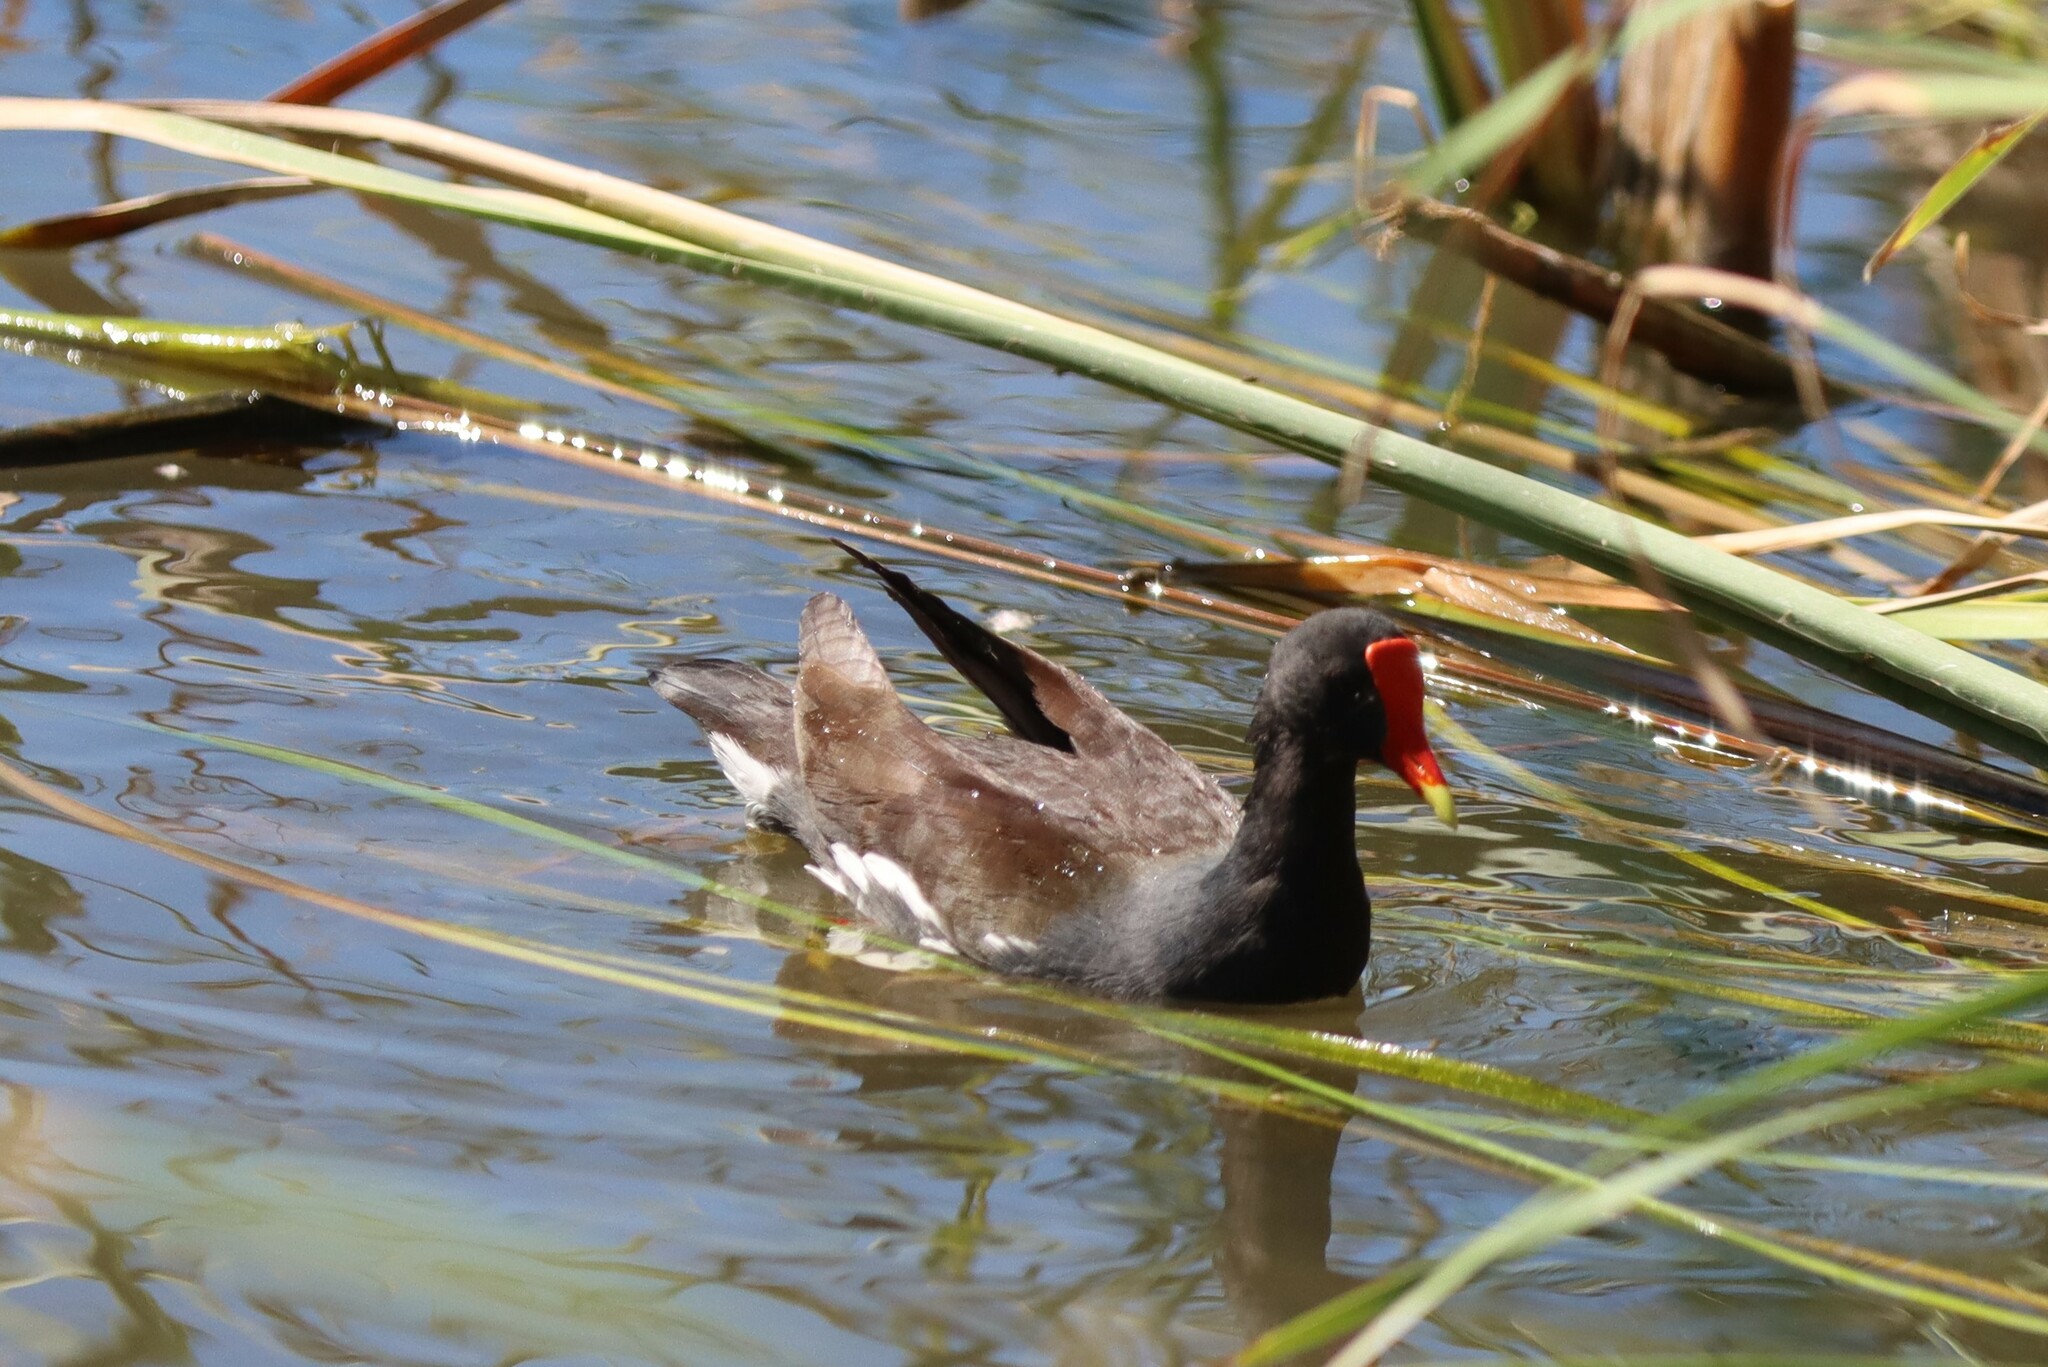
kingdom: Animalia
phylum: Chordata
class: Aves
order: Gruiformes
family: Rallidae
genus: Gallinula
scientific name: Gallinula chloropus
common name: Common moorhen
